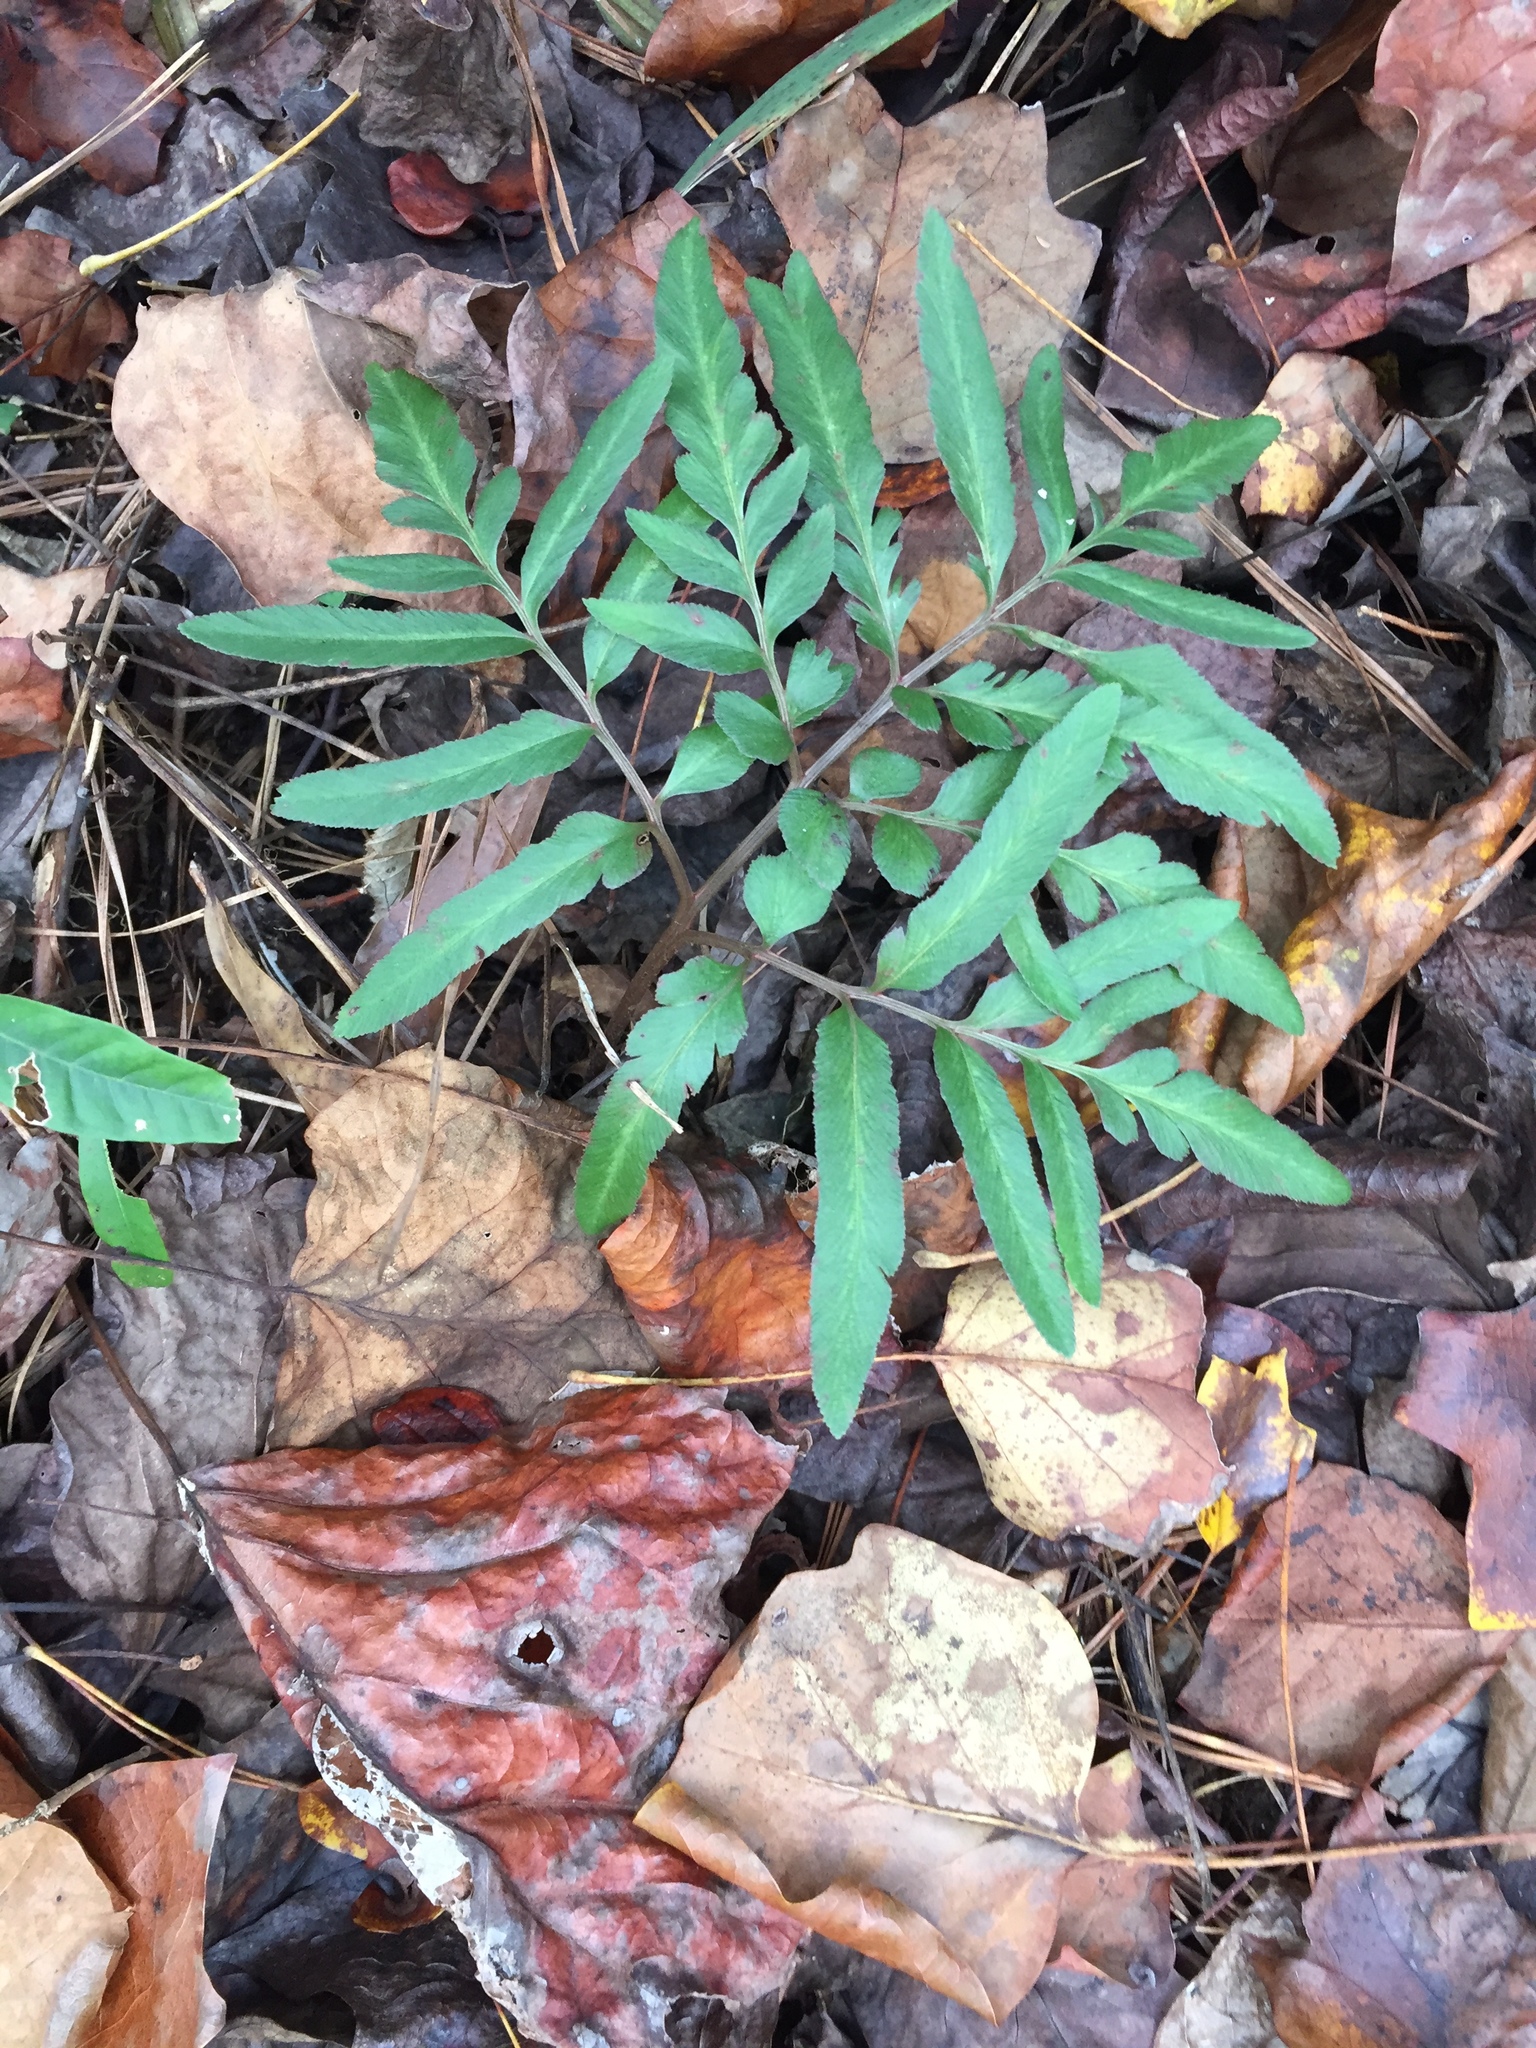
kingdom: Plantae
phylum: Tracheophyta
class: Polypodiopsida
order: Ophioglossales
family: Ophioglossaceae
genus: Sceptridium
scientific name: Sceptridium biternatum
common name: Sparse-lobed grapefern
